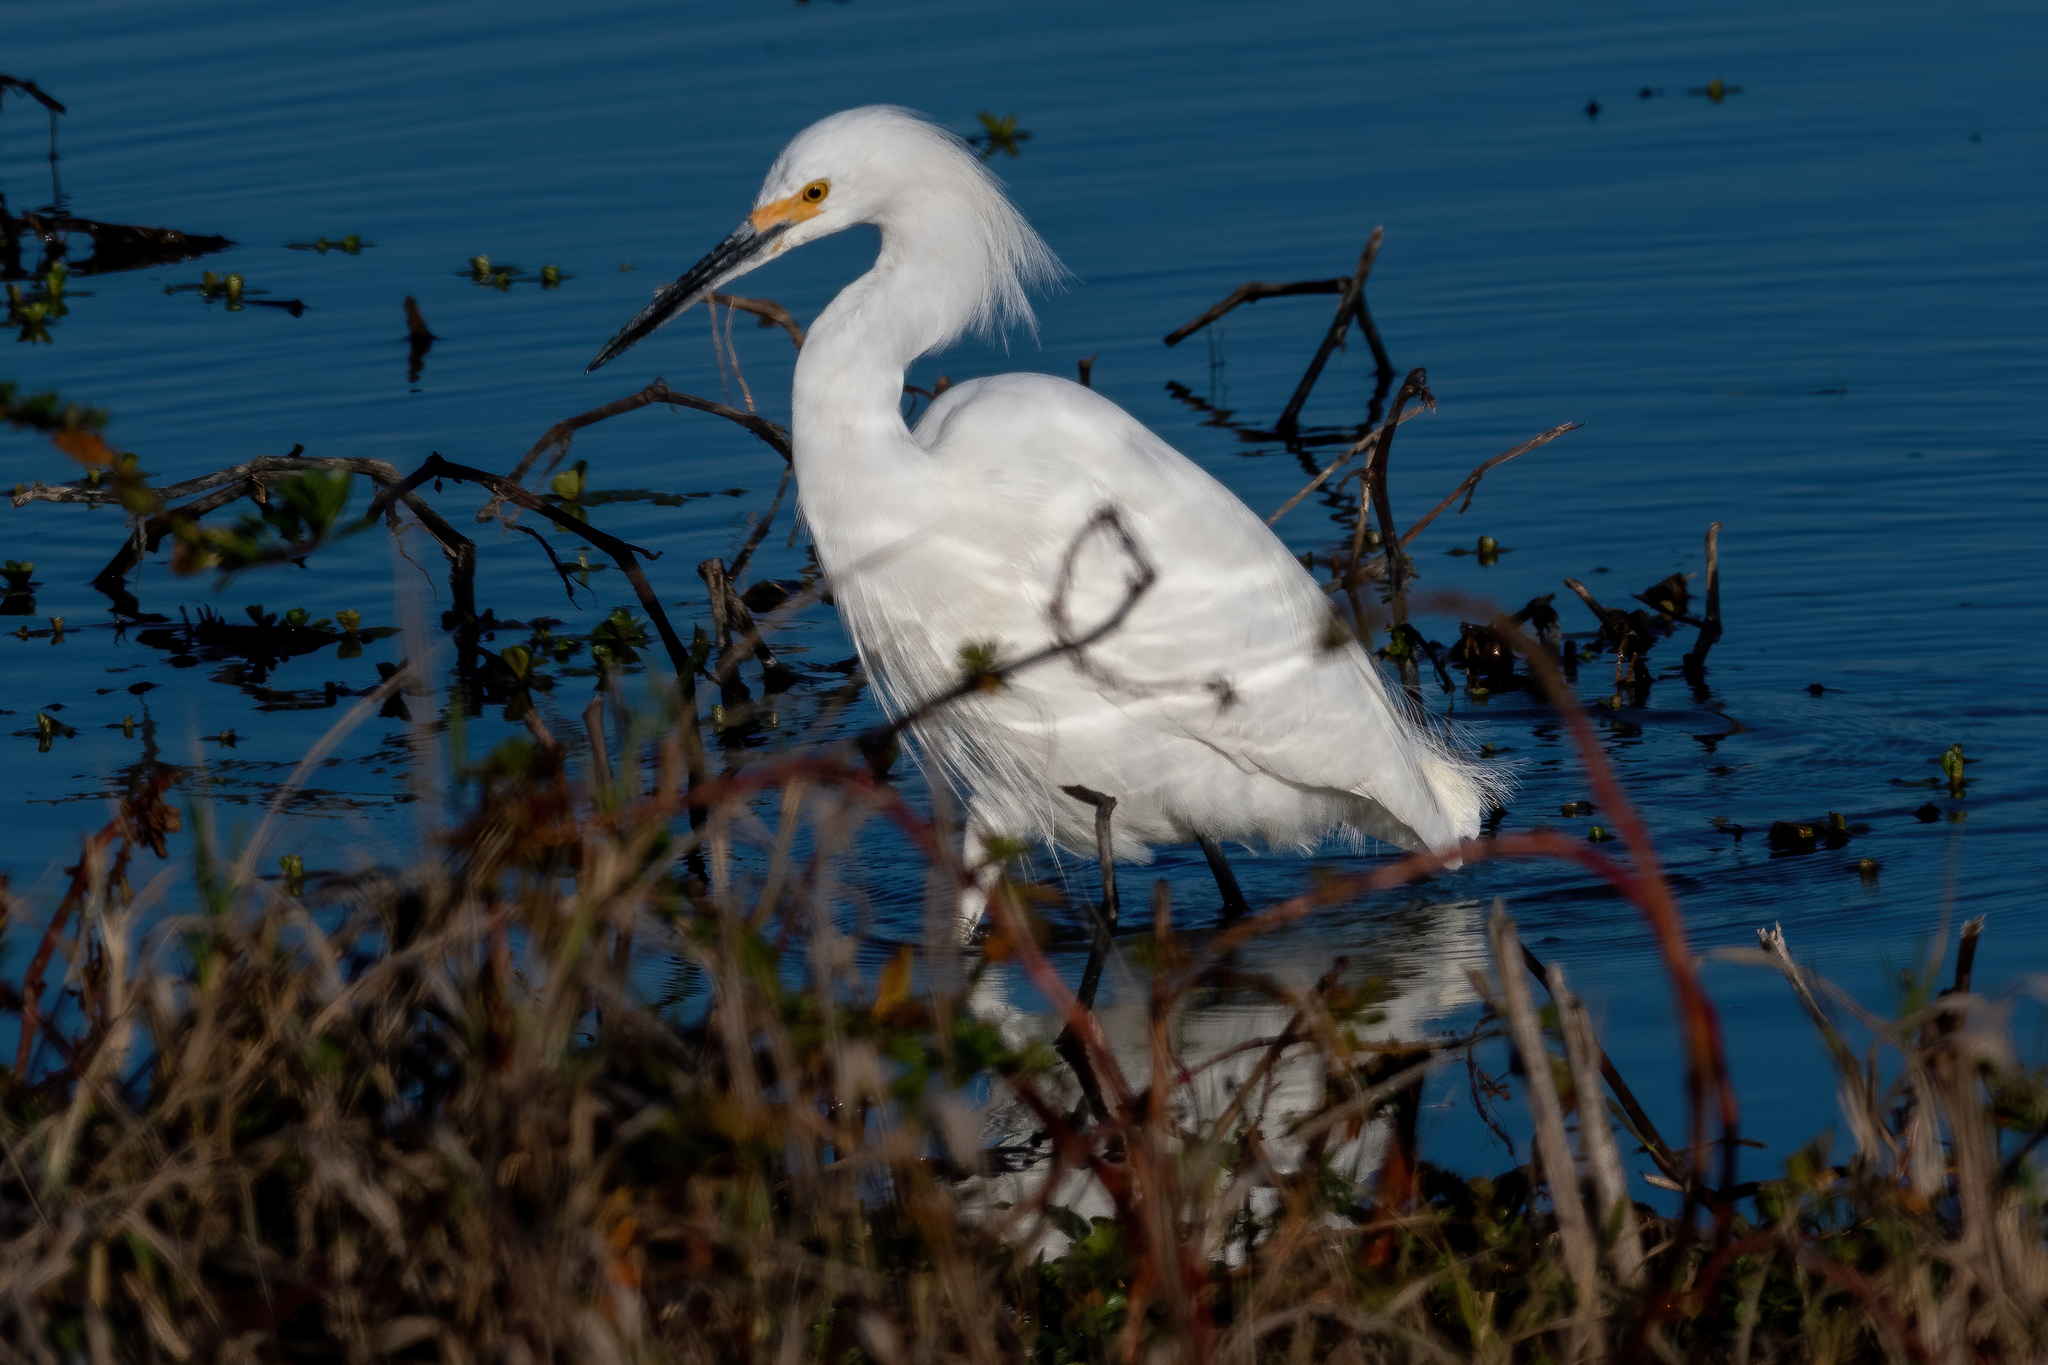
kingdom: Animalia
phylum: Chordata
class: Aves
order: Pelecaniformes
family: Ardeidae
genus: Egretta
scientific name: Egretta thula
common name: Snowy egret
